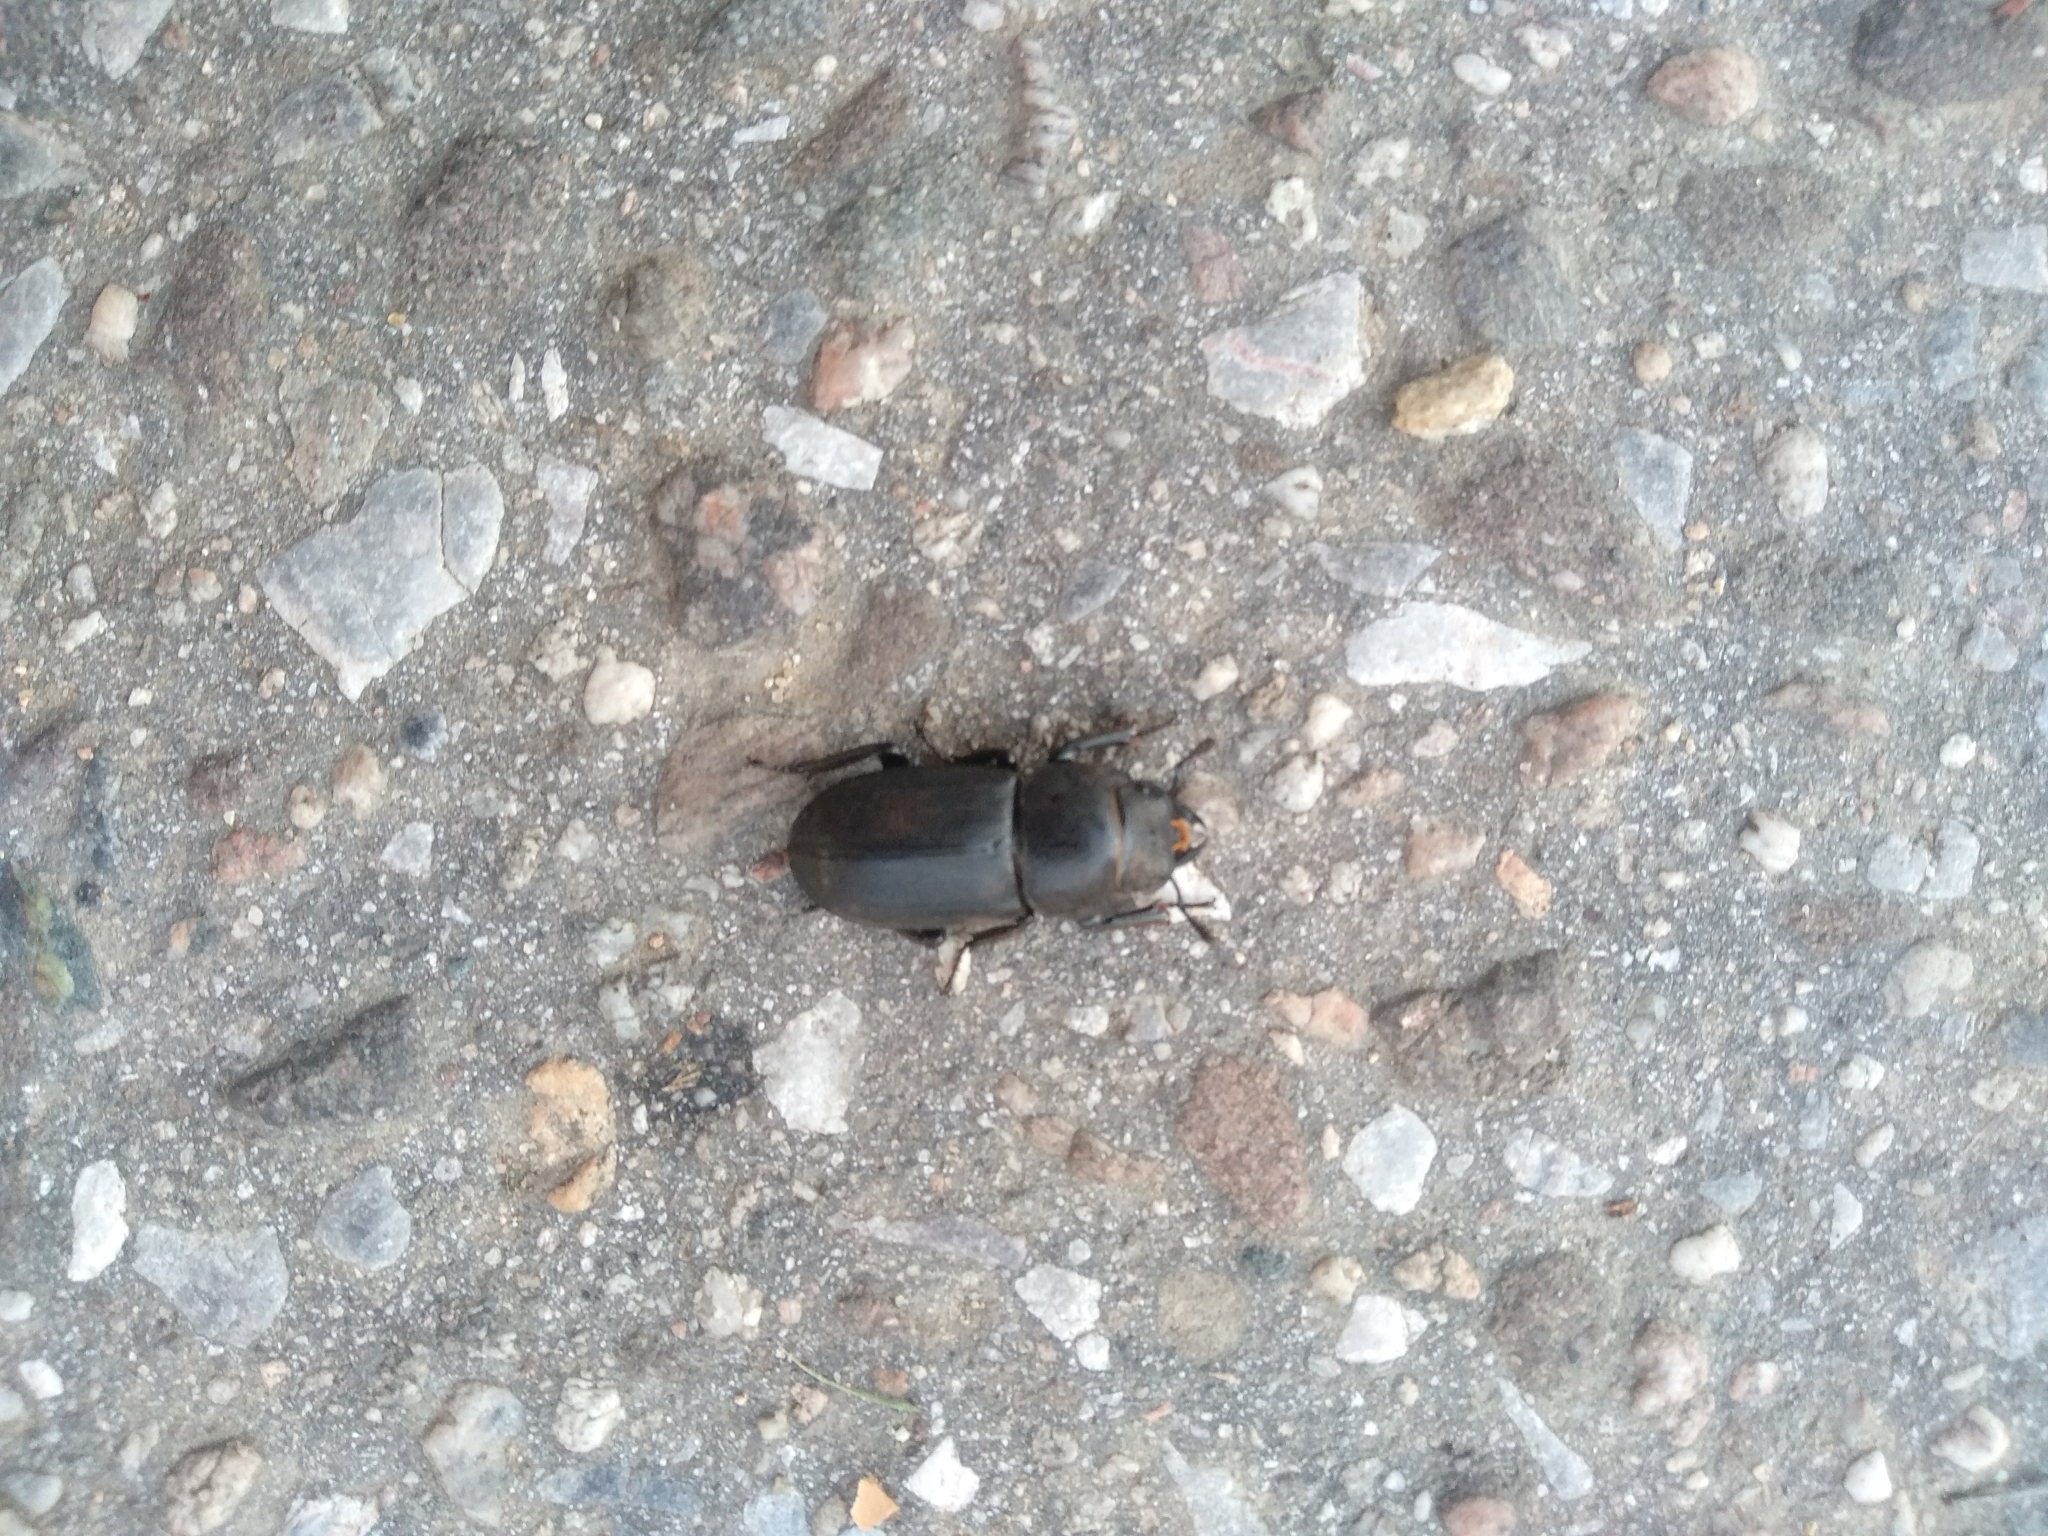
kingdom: Animalia
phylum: Arthropoda
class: Insecta
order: Coleoptera
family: Lucanidae
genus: Dorcus
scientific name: Dorcus parallelipipedus
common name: Lesser stag beetle
